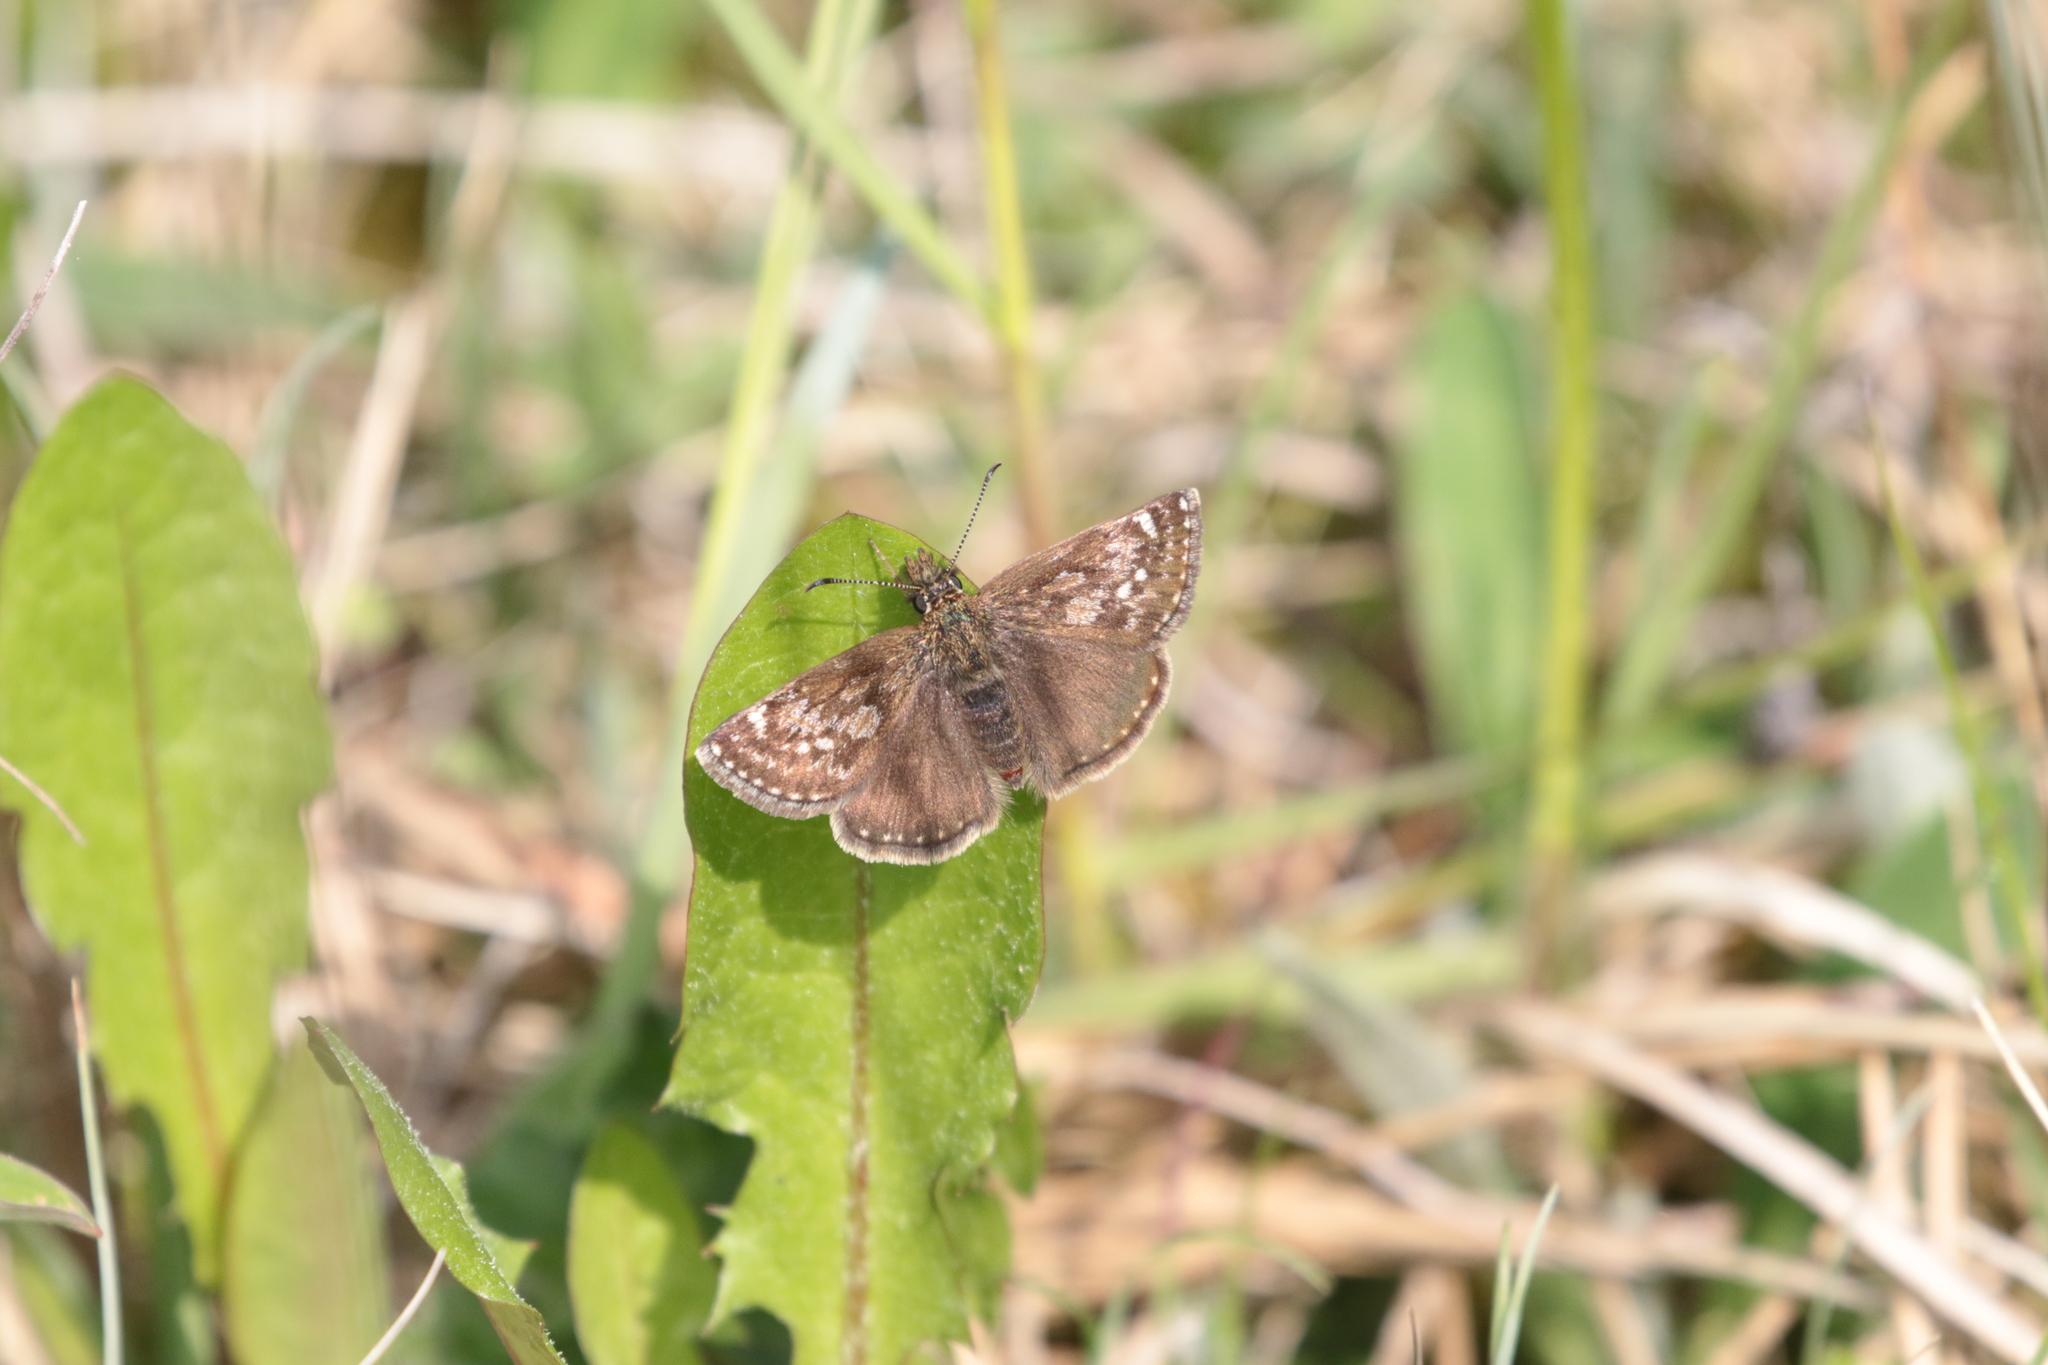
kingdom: Animalia
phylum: Arthropoda
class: Insecta
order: Lepidoptera
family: Hesperiidae
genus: Erynnis
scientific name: Erynnis tages
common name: Dingy skipper
